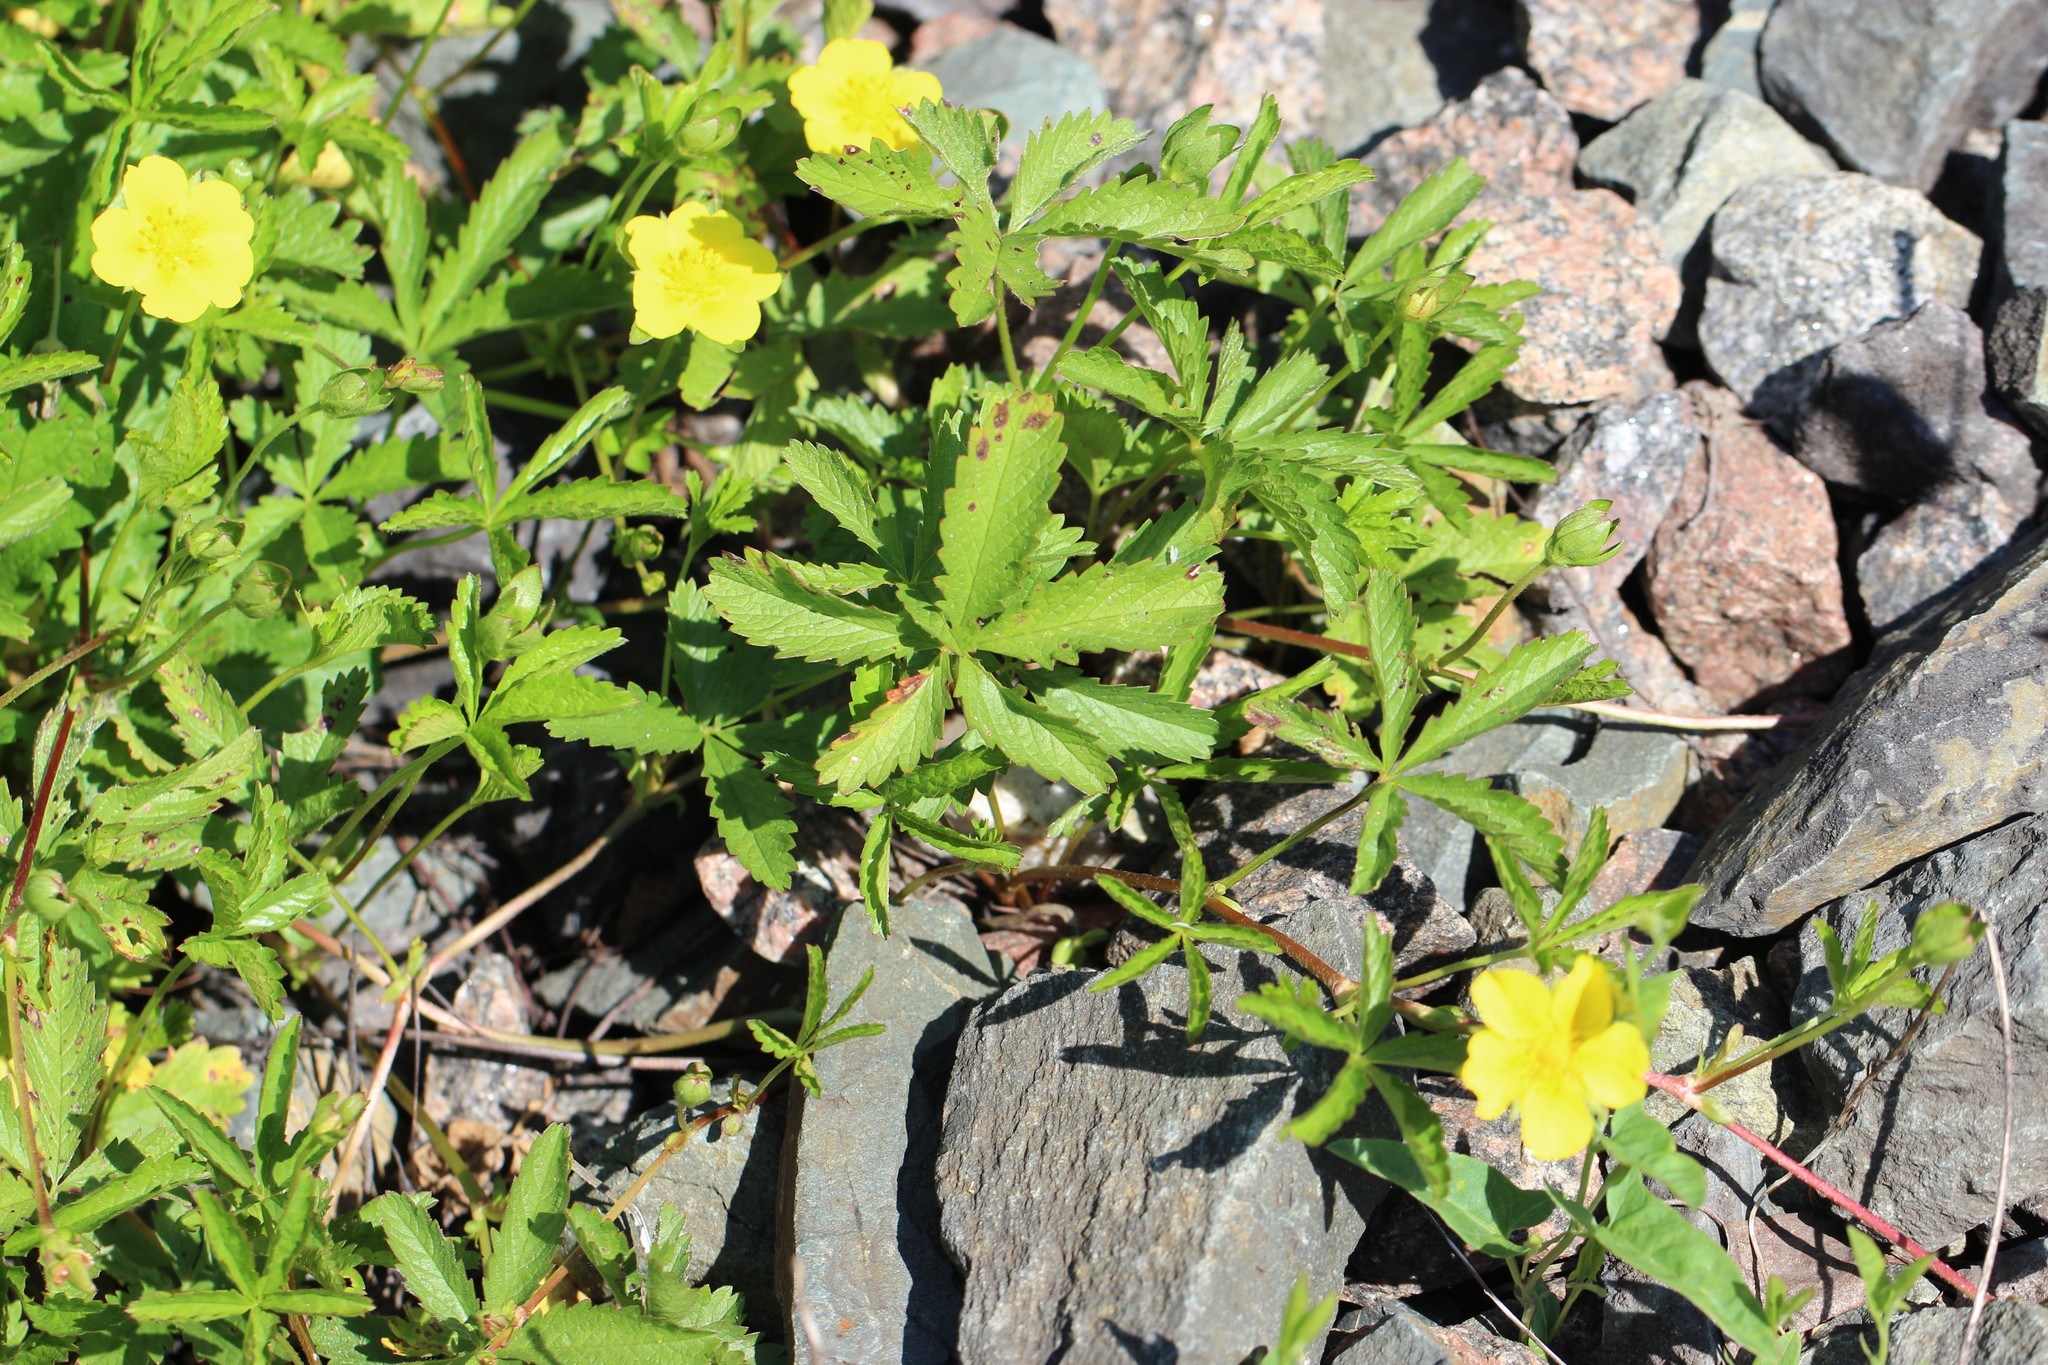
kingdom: Plantae
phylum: Tracheophyta
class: Magnoliopsida
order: Rosales
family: Rosaceae
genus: Potentilla
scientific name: Potentilla reptans
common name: Creeping cinquefoil
